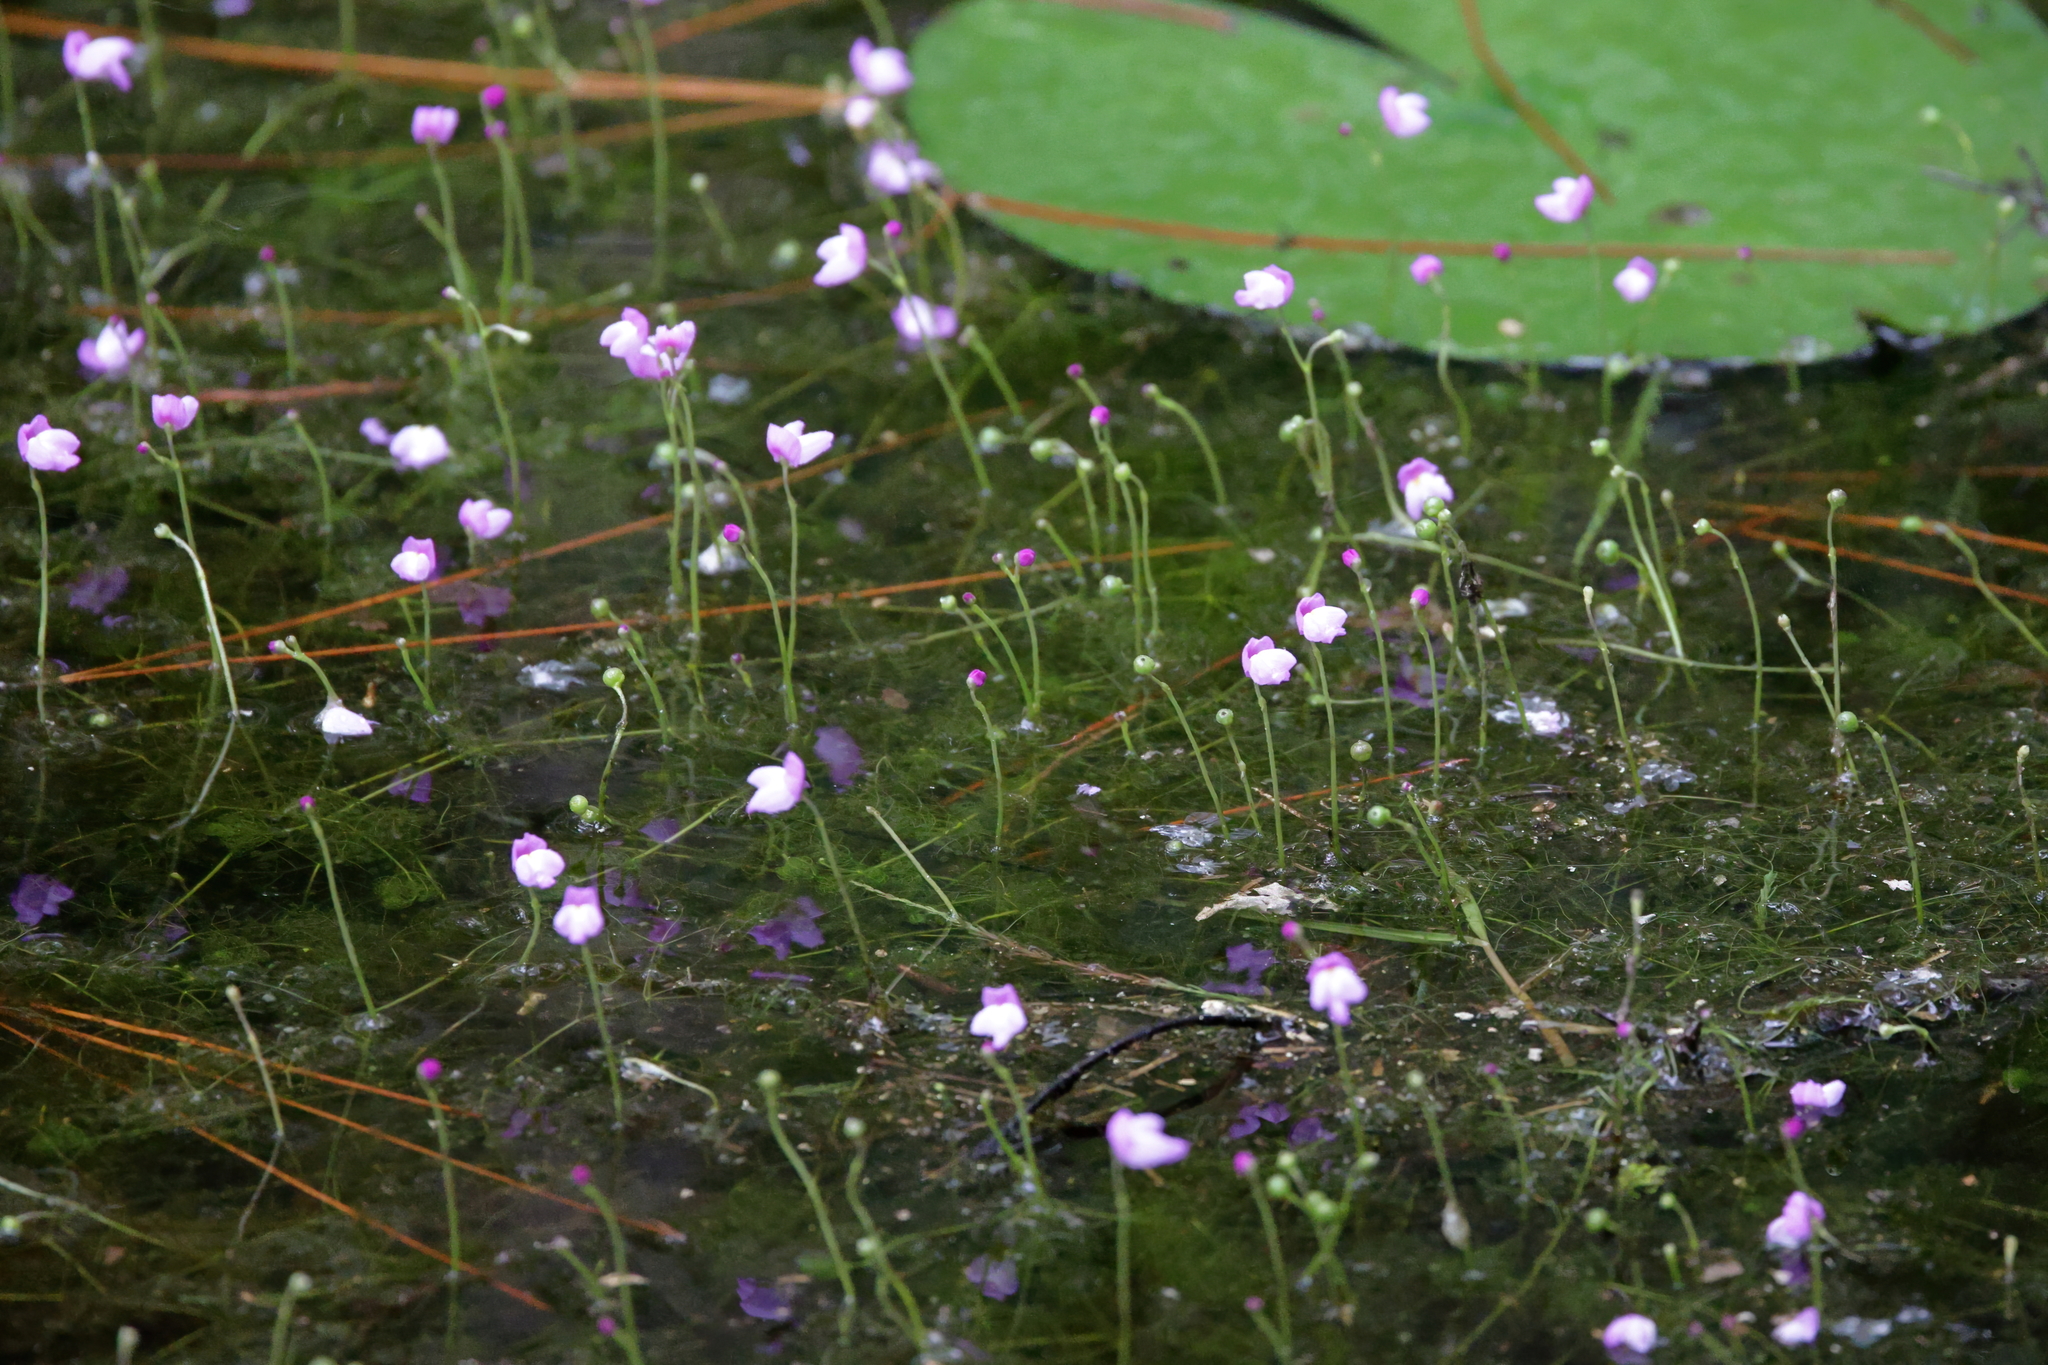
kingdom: Plantae
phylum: Tracheophyta
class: Magnoliopsida
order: Lamiales
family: Lentibulariaceae
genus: Utricularia
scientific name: Utricularia purpurea
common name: Eastern purple bladderwort
